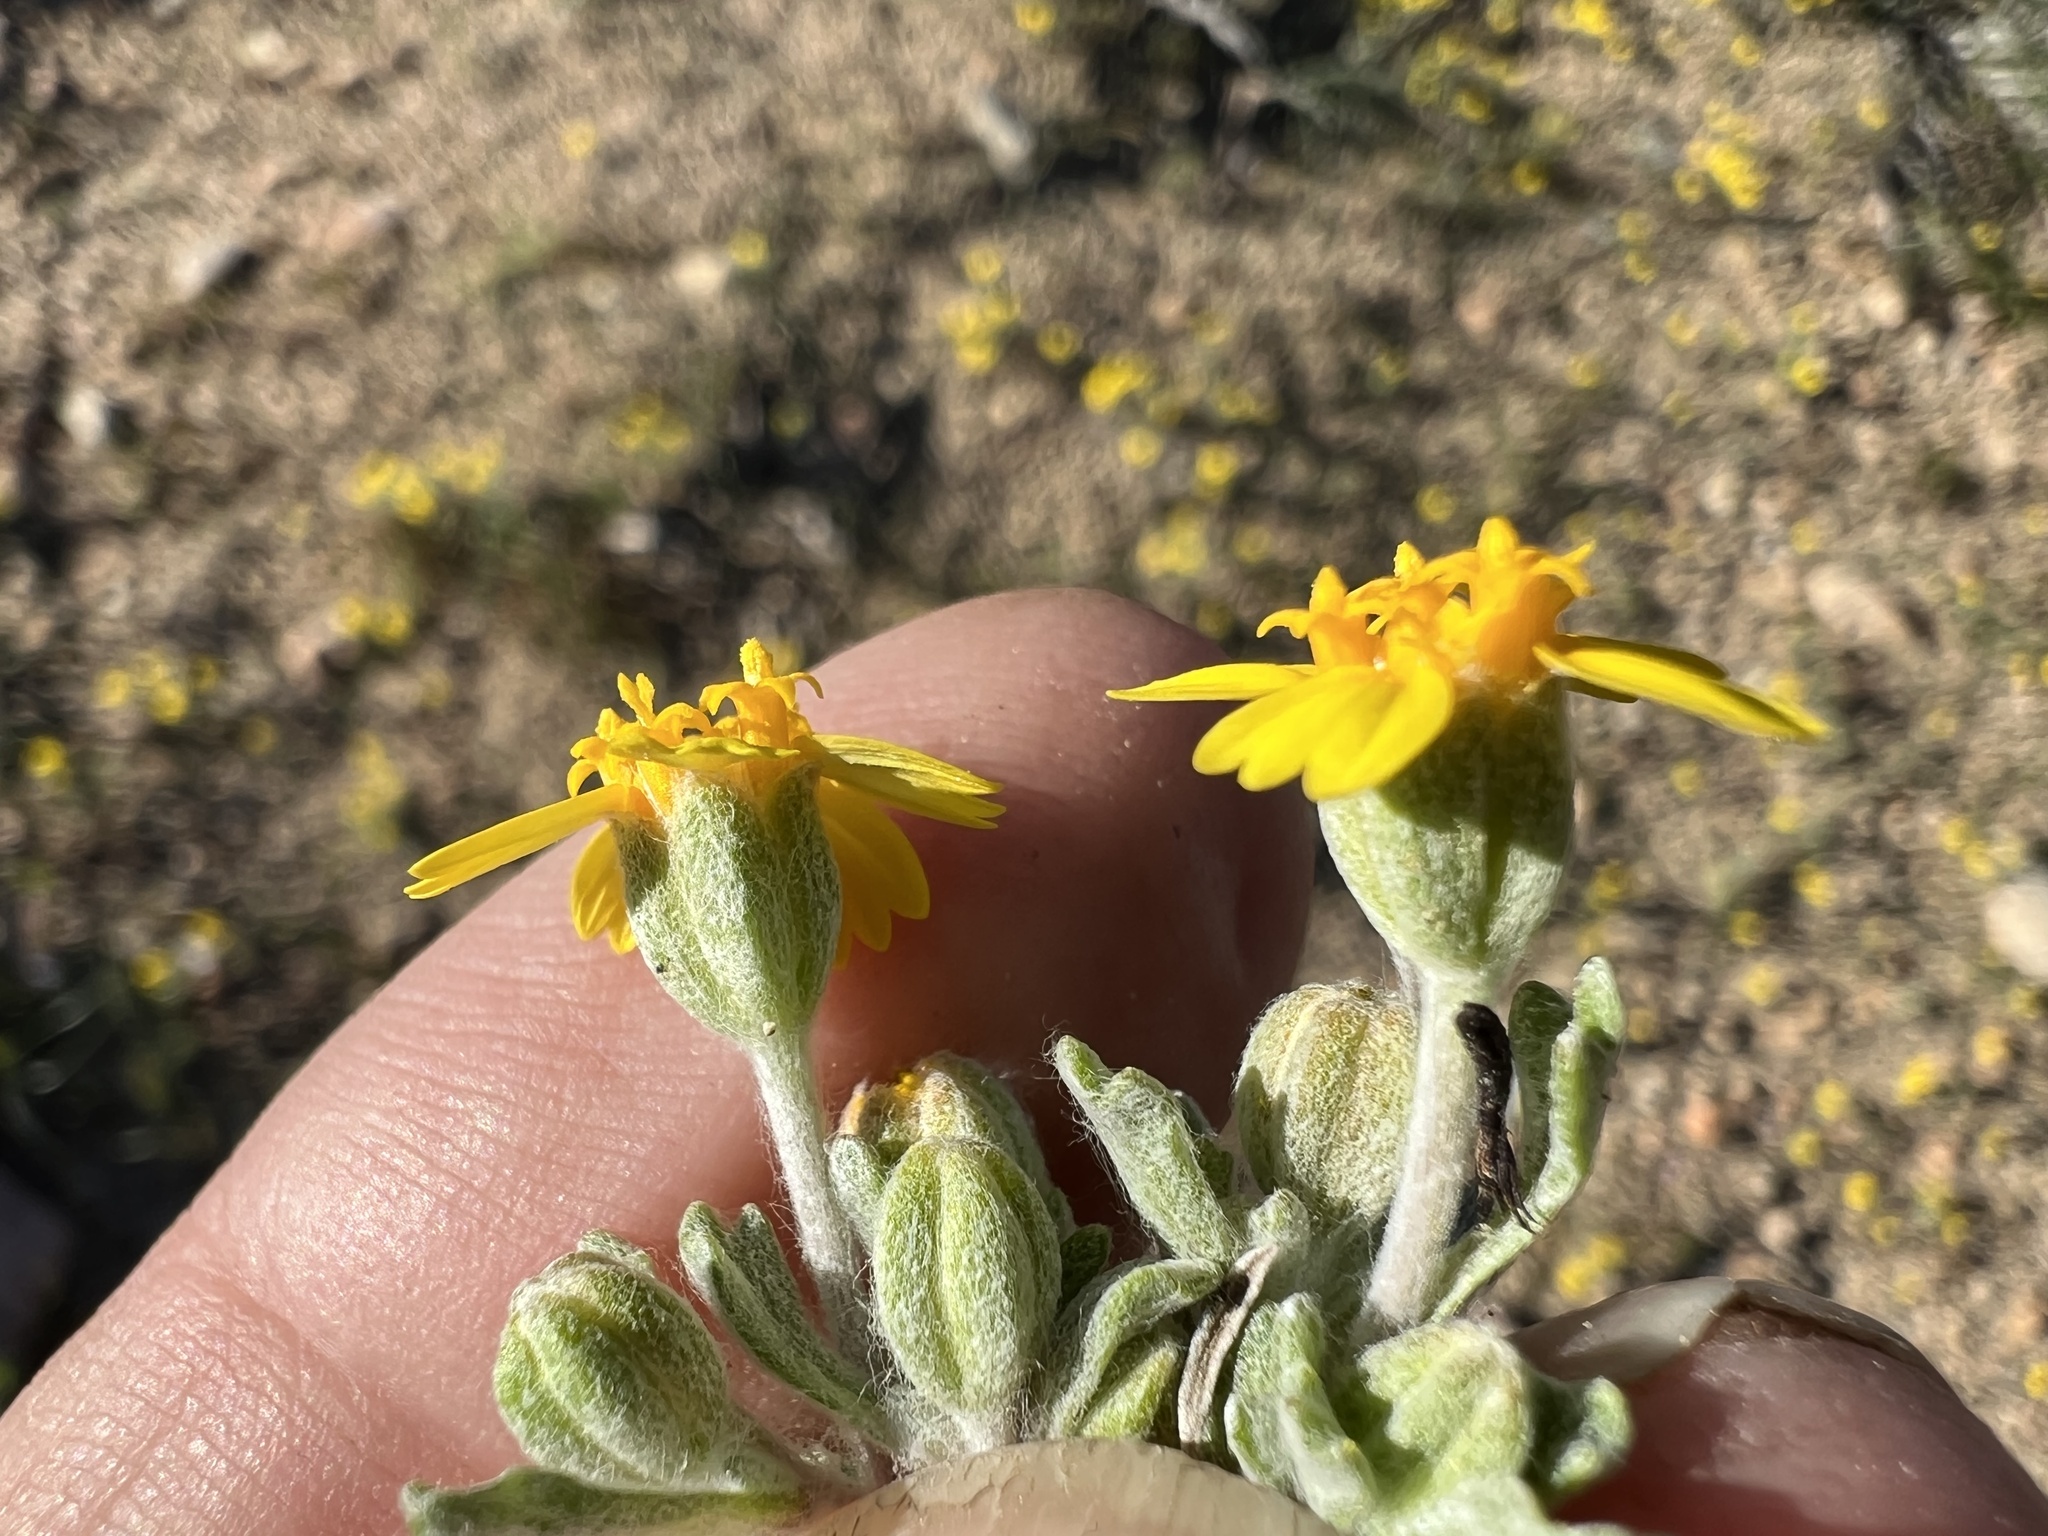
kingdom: Plantae
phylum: Tracheophyta
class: Magnoliopsida
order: Asterales
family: Asteraceae
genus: Syntrichopappus
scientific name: Syntrichopappus fremontii
